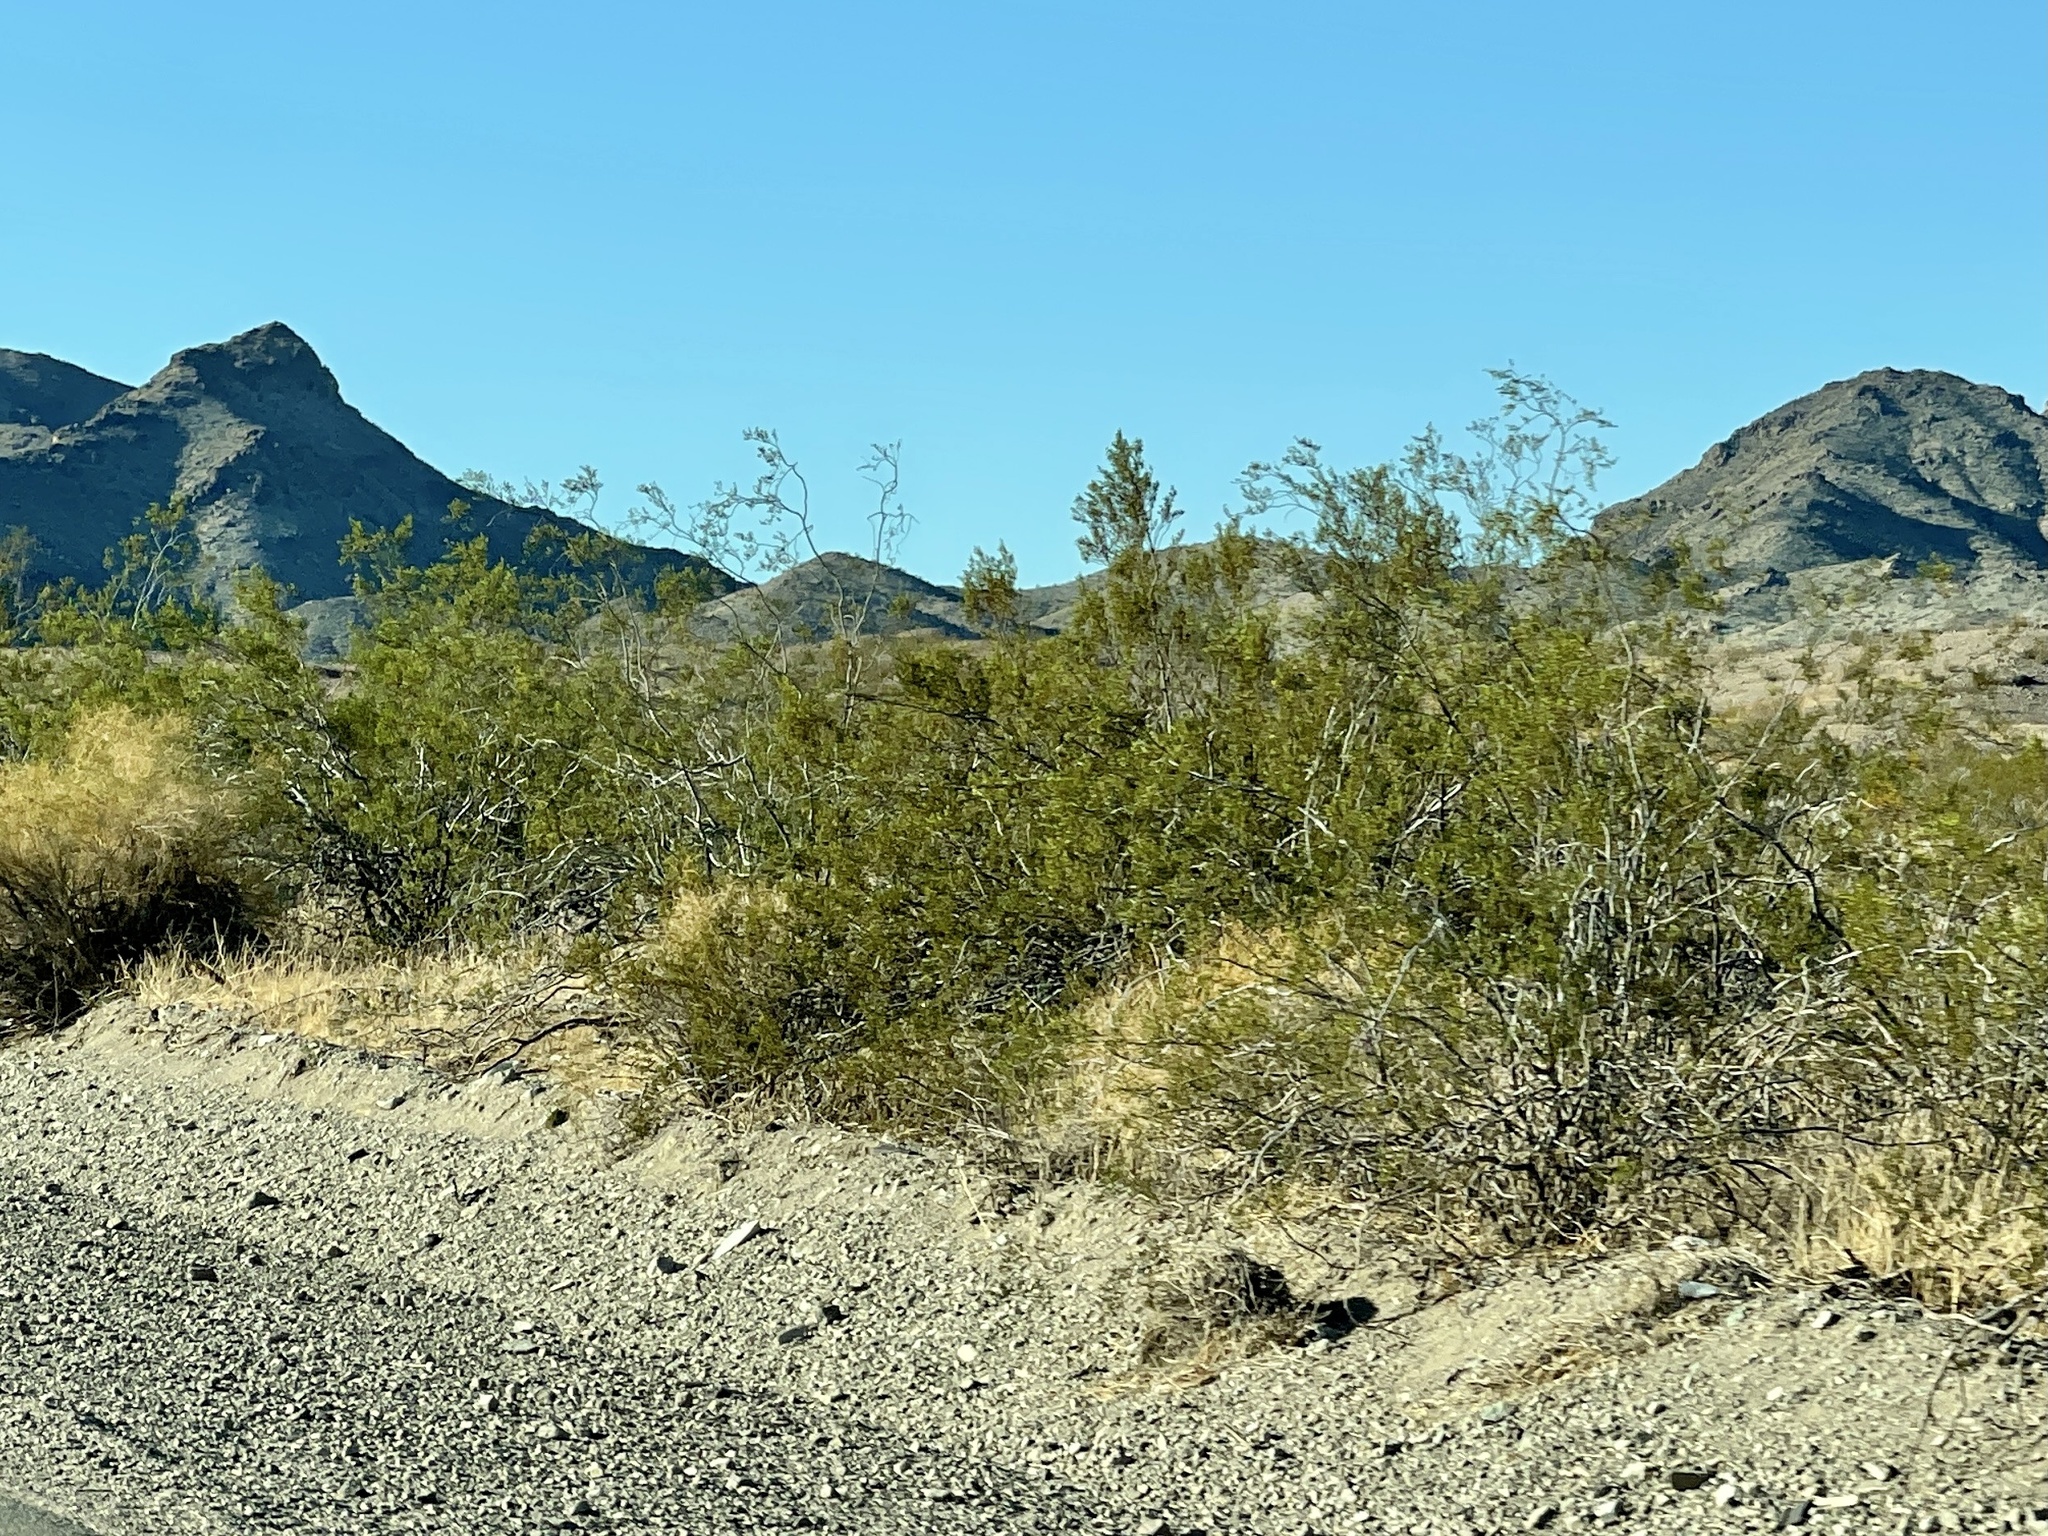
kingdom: Plantae
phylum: Tracheophyta
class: Magnoliopsida
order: Zygophyllales
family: Zygophyllaceae
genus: Larrea
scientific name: Larrea tridentata
